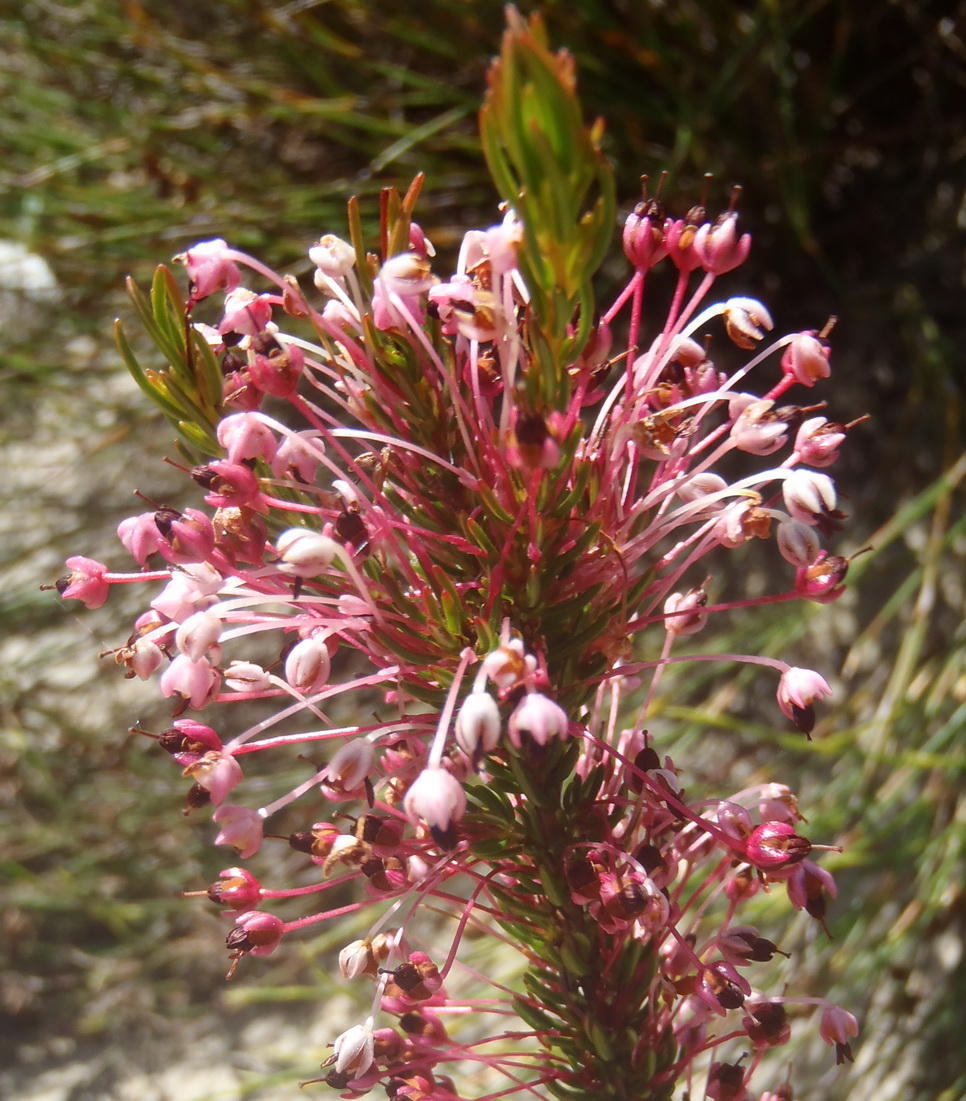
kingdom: Plantae
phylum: Tracheophyta
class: Magnoliopsida
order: Ericales
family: Ericaceae
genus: Erica
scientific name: Erica rubiginosa
